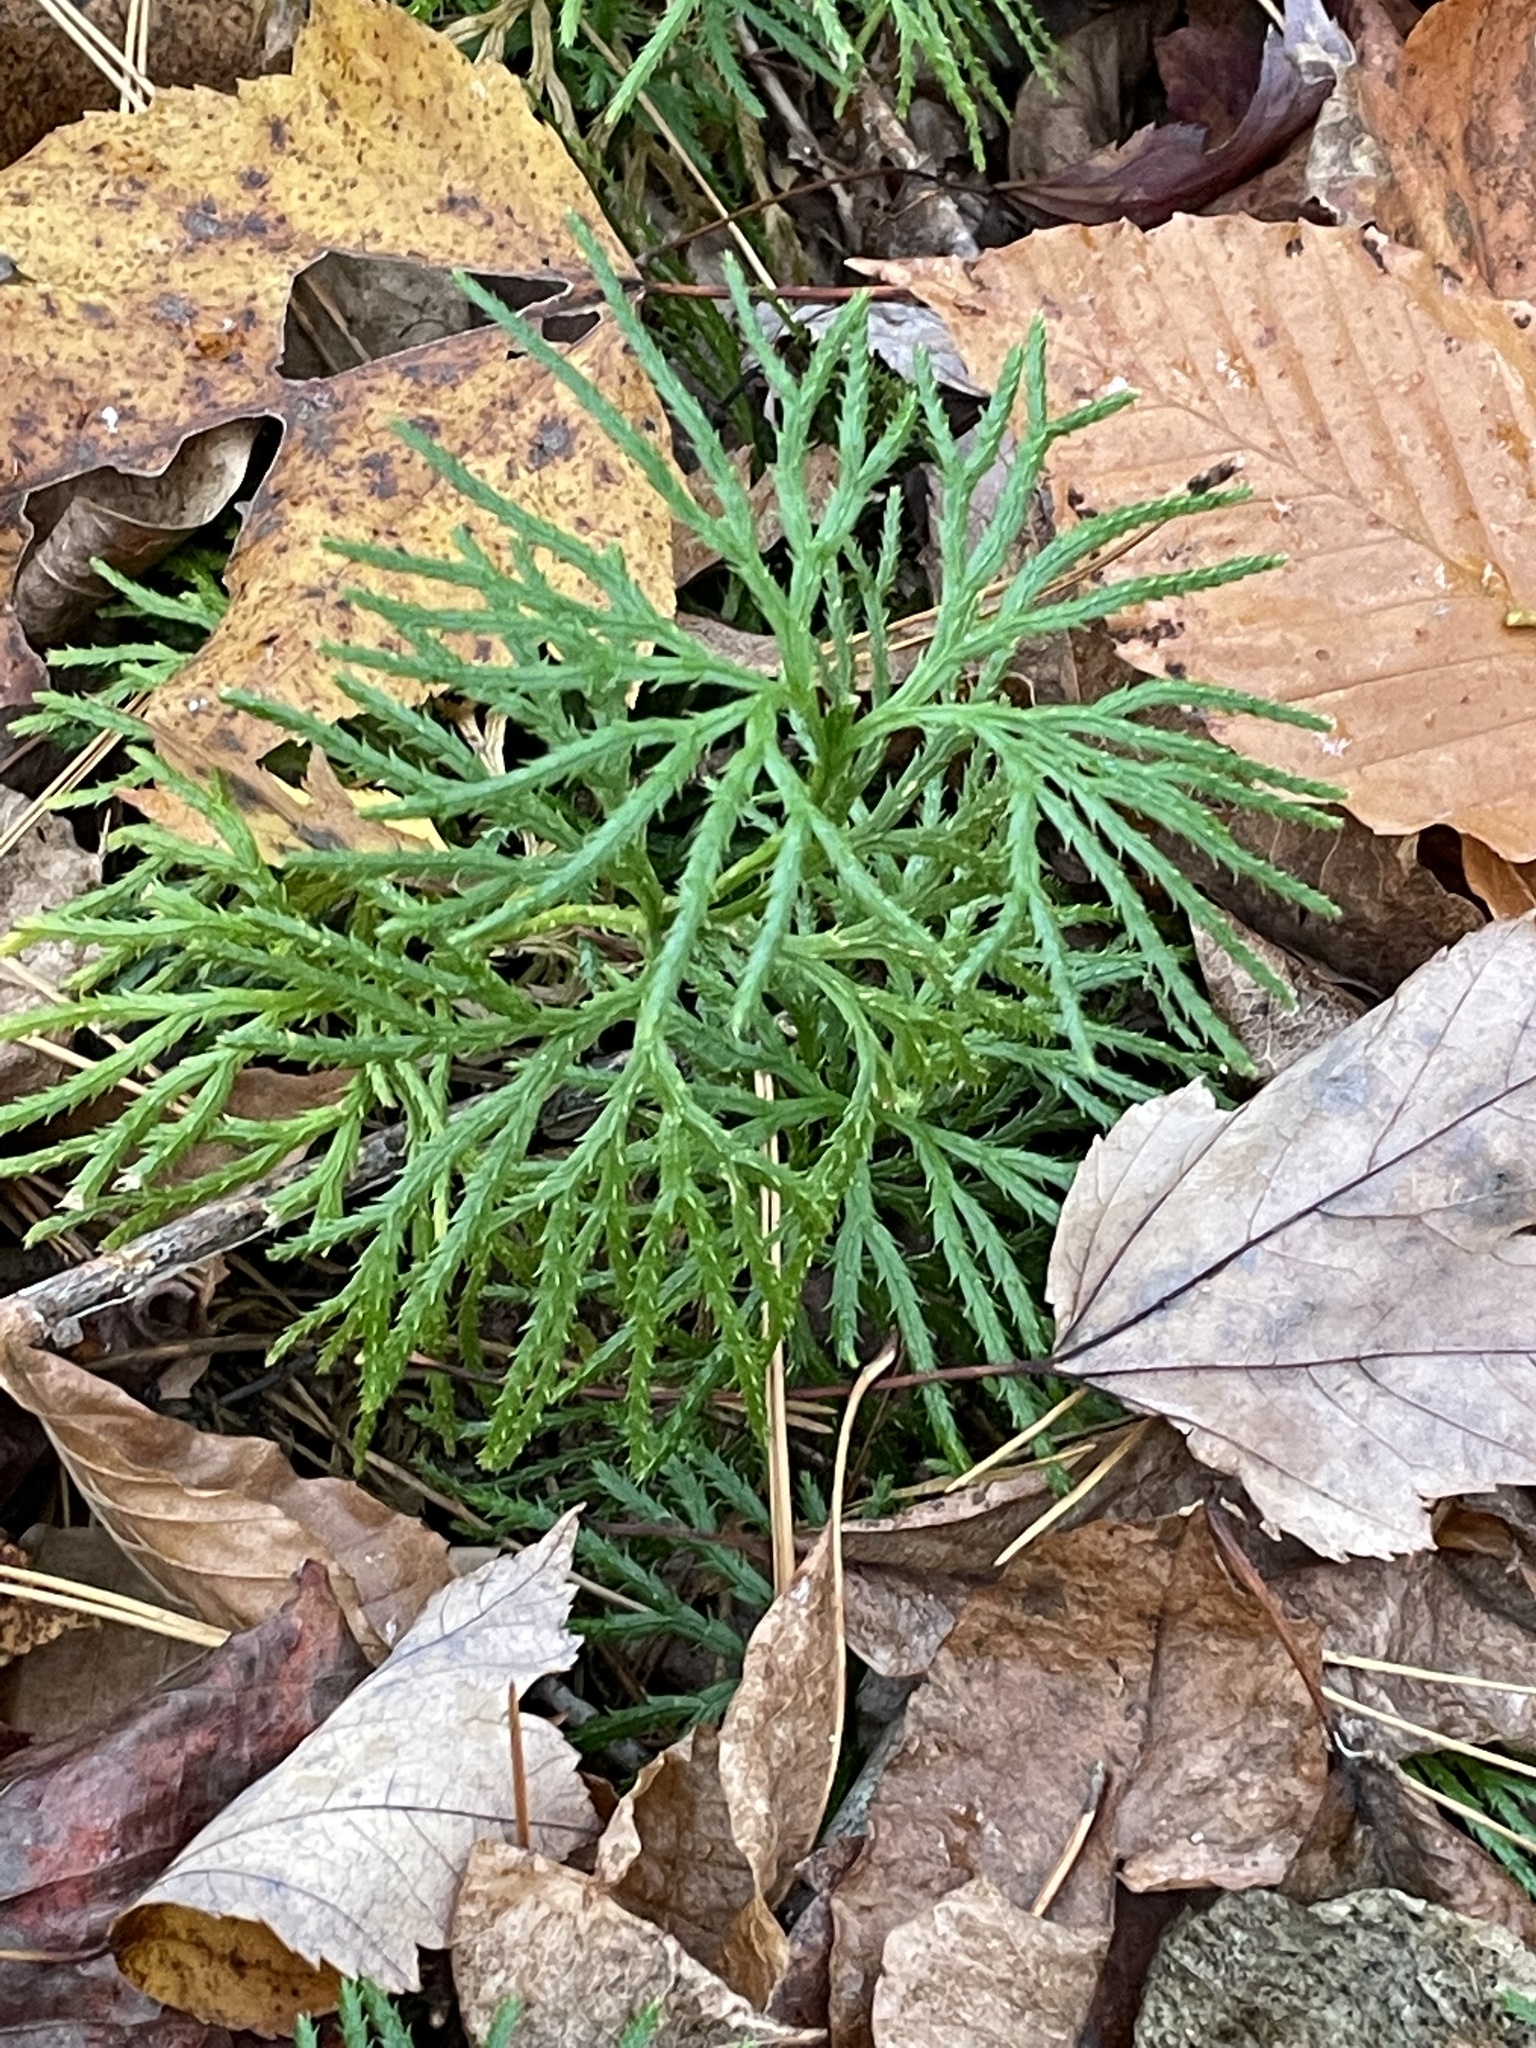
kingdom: Plantae
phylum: Tracheophyta
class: Lycopodiopsida
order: Lycopodiales
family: Lycopodiaceae
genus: Diphasiastrum
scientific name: Diphasiastrum digitatum
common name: Southern running-pine
